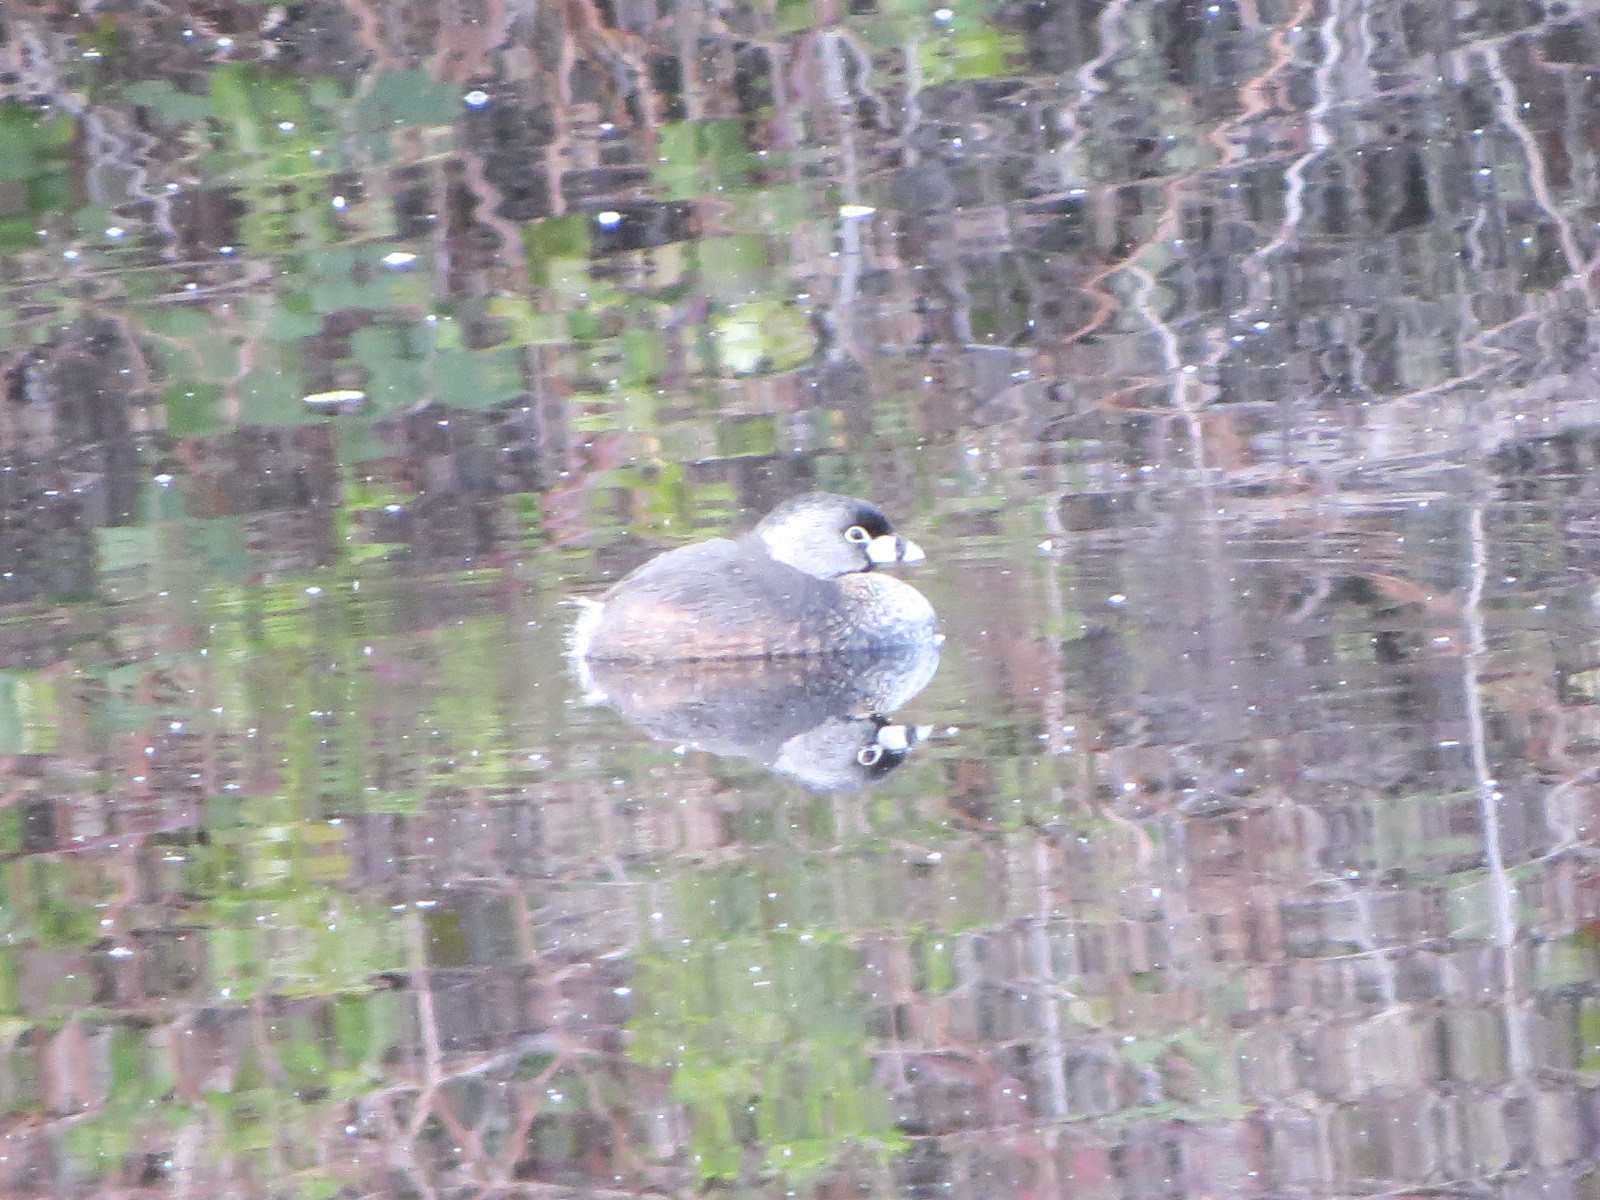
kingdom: Animalia
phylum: Chordata
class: Aves
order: Podicipediformes
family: Podicipedidae
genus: Podilymbus
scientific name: Podilymbus podiceps
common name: Pied-billed grebe
